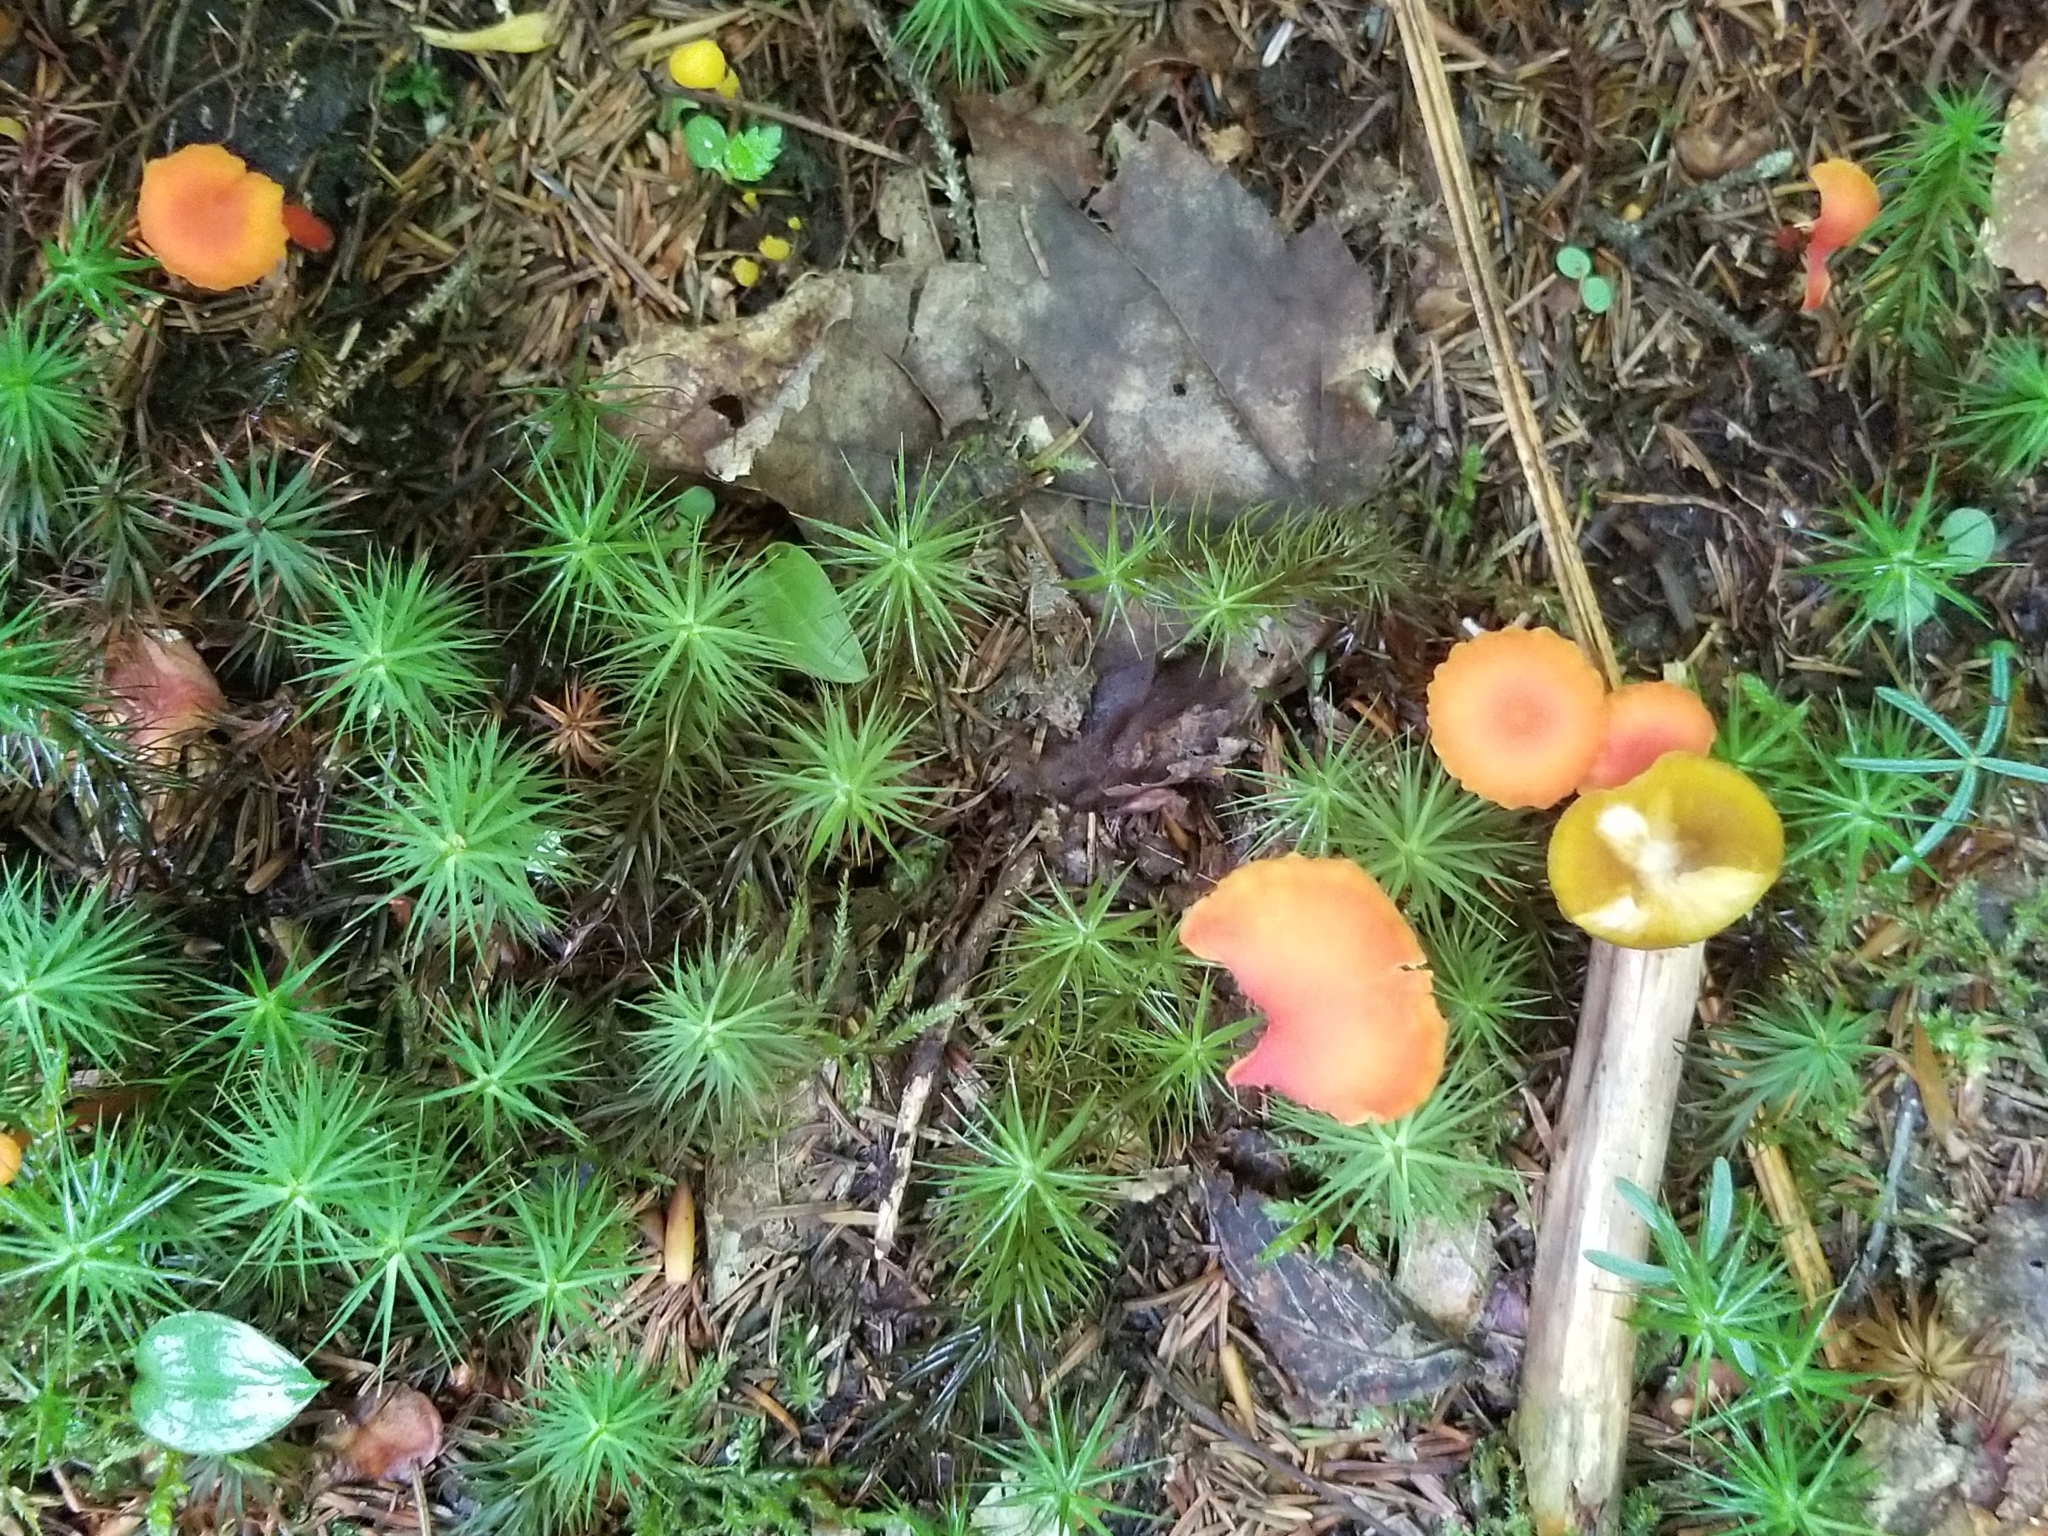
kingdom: Fungi
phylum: Basidiomycota
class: Agaricomycetes
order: Hymenochaetales
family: Rickenellaceae
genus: Rickenella
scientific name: Rickenella fibula
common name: Orange mosscap
